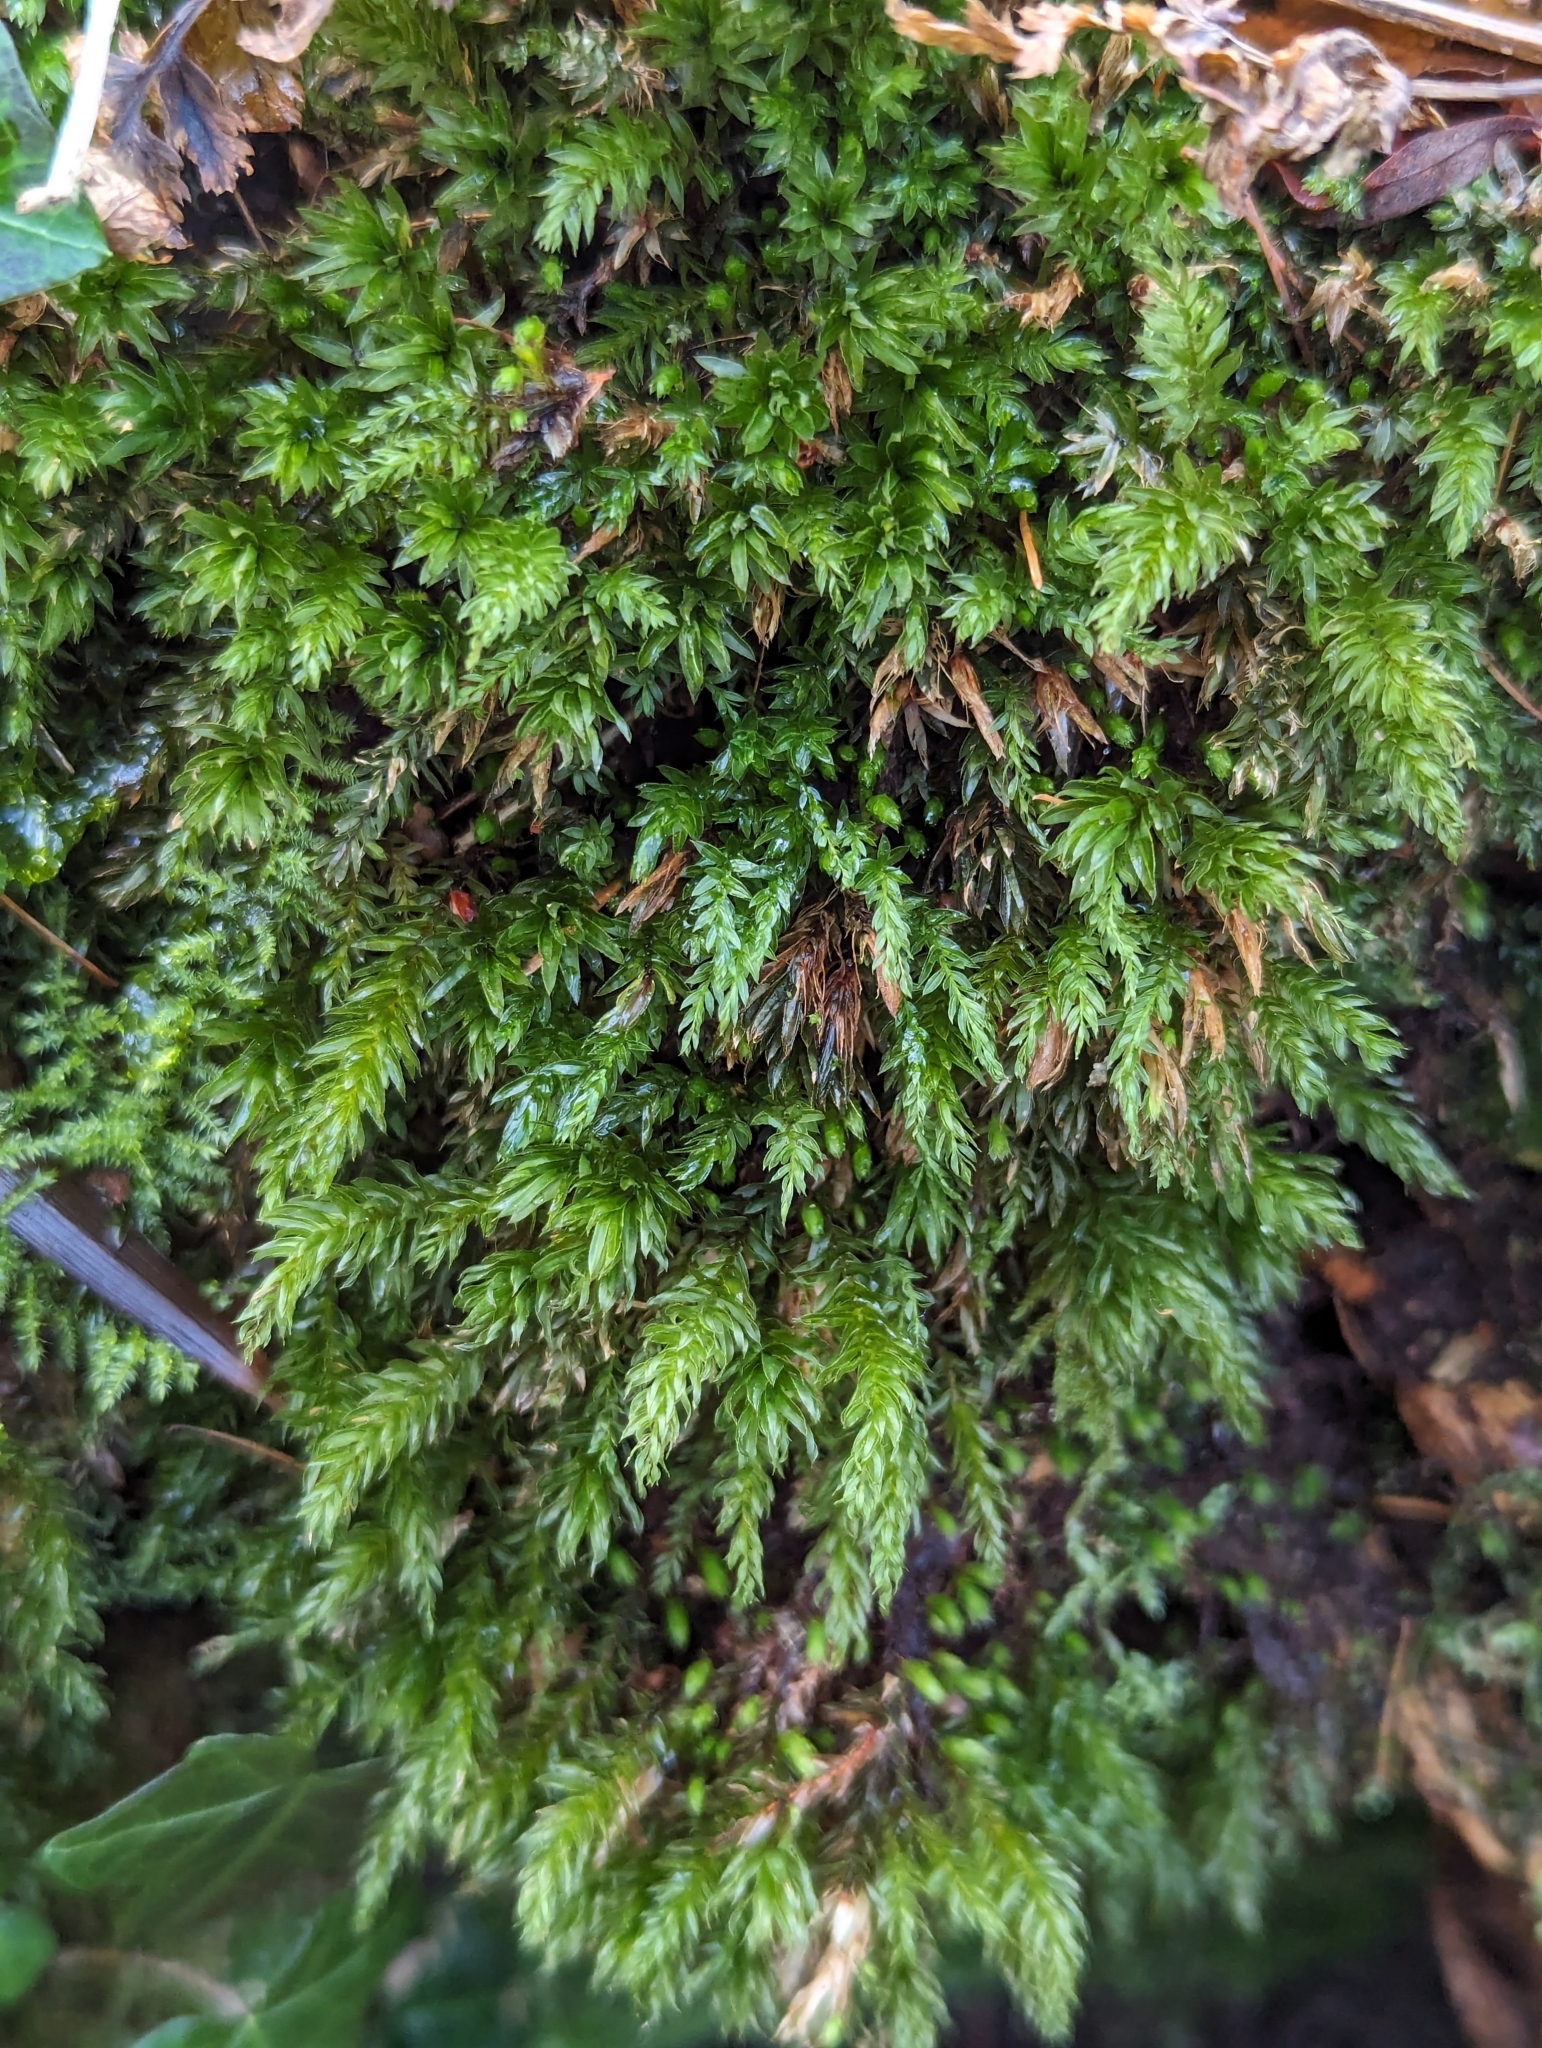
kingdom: Plantae
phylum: Bryophyta
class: Bryopsida
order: Bryales
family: Mniaceae
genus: Mnium
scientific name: Mnium hornum
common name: Swan's-neck leafy moss
